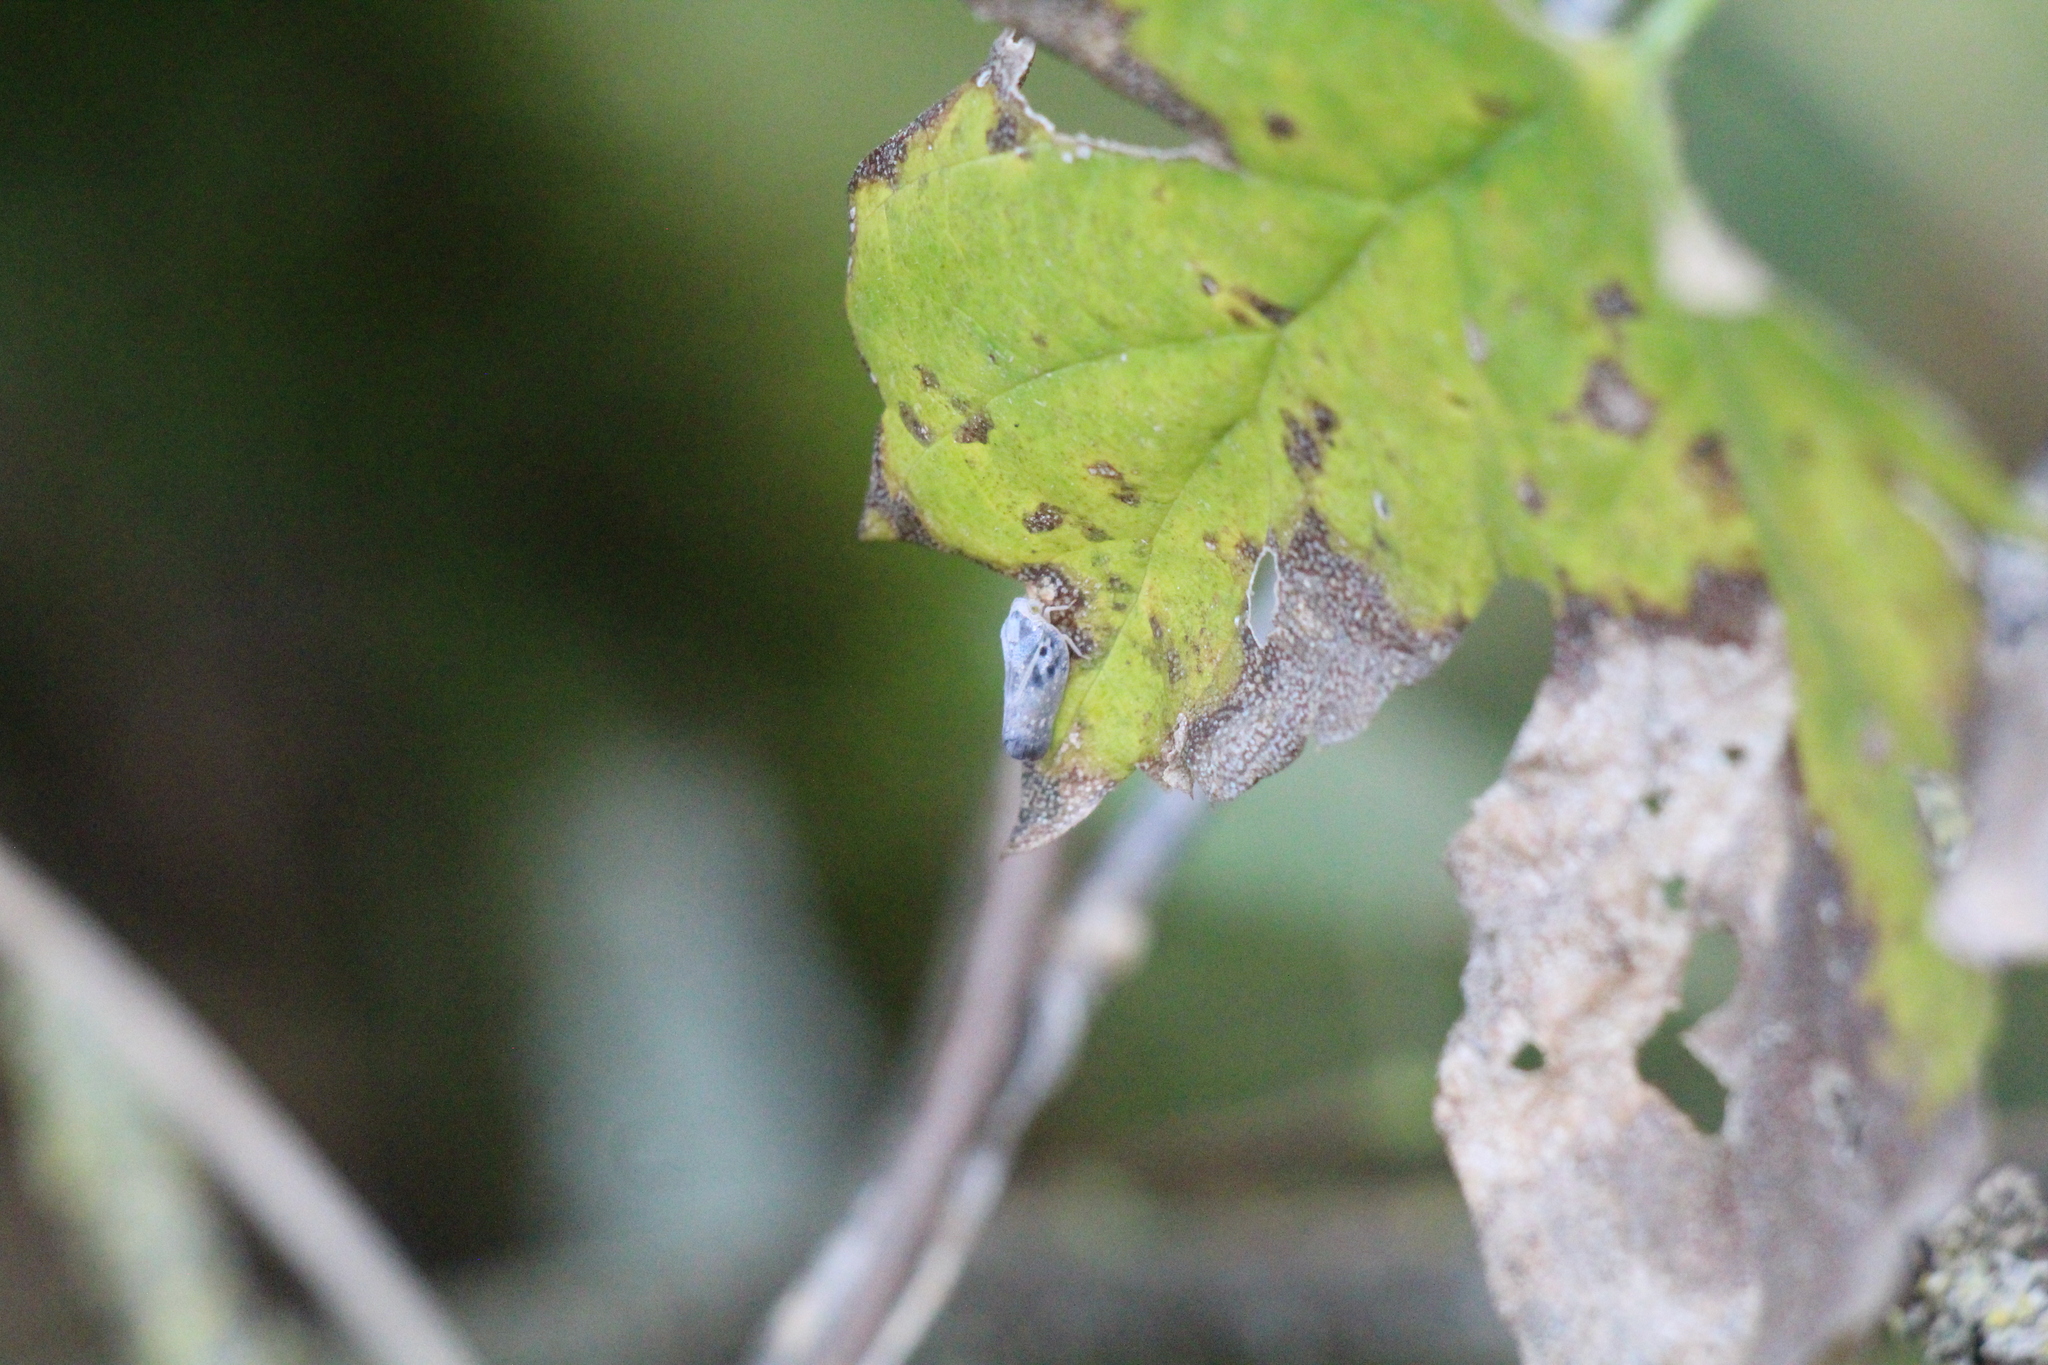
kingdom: Animalia
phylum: Arthropoda
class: Insecta
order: Hemiptera
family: Flatidae
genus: Metcalfa
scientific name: Metcalfa pruinosa
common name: Citrus flatid planthopper
